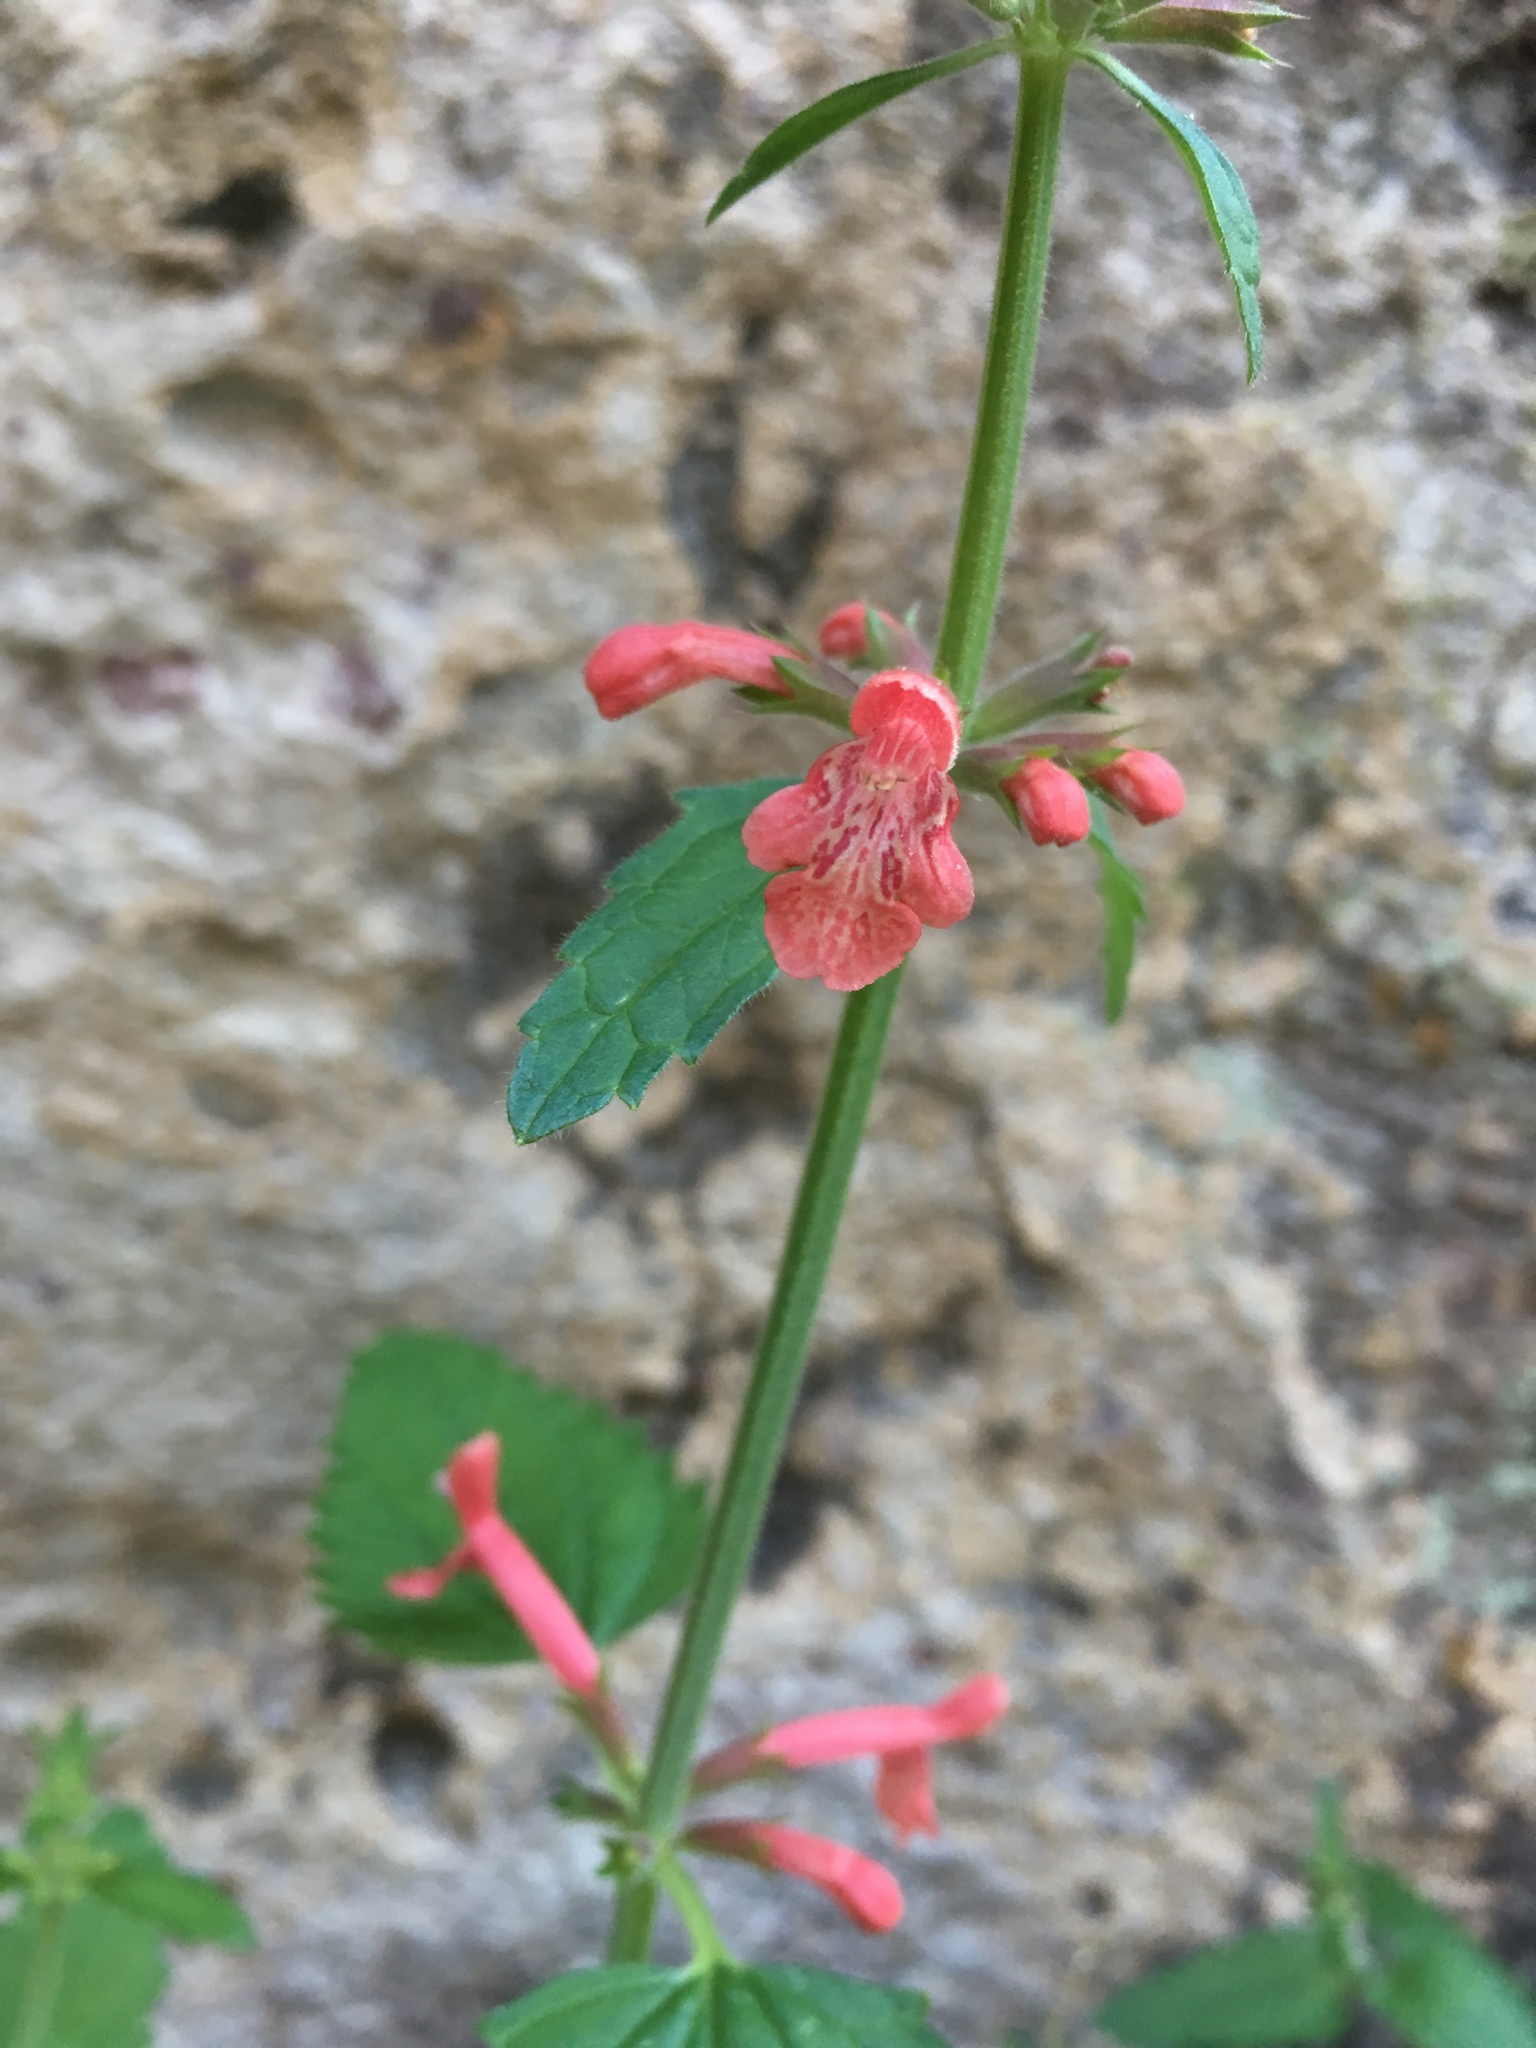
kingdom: Plantae
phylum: Tracheophyta
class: Magnoliopsida
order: Lamiales
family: Lamiaceae
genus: Stachys
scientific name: Stachys coccinea
